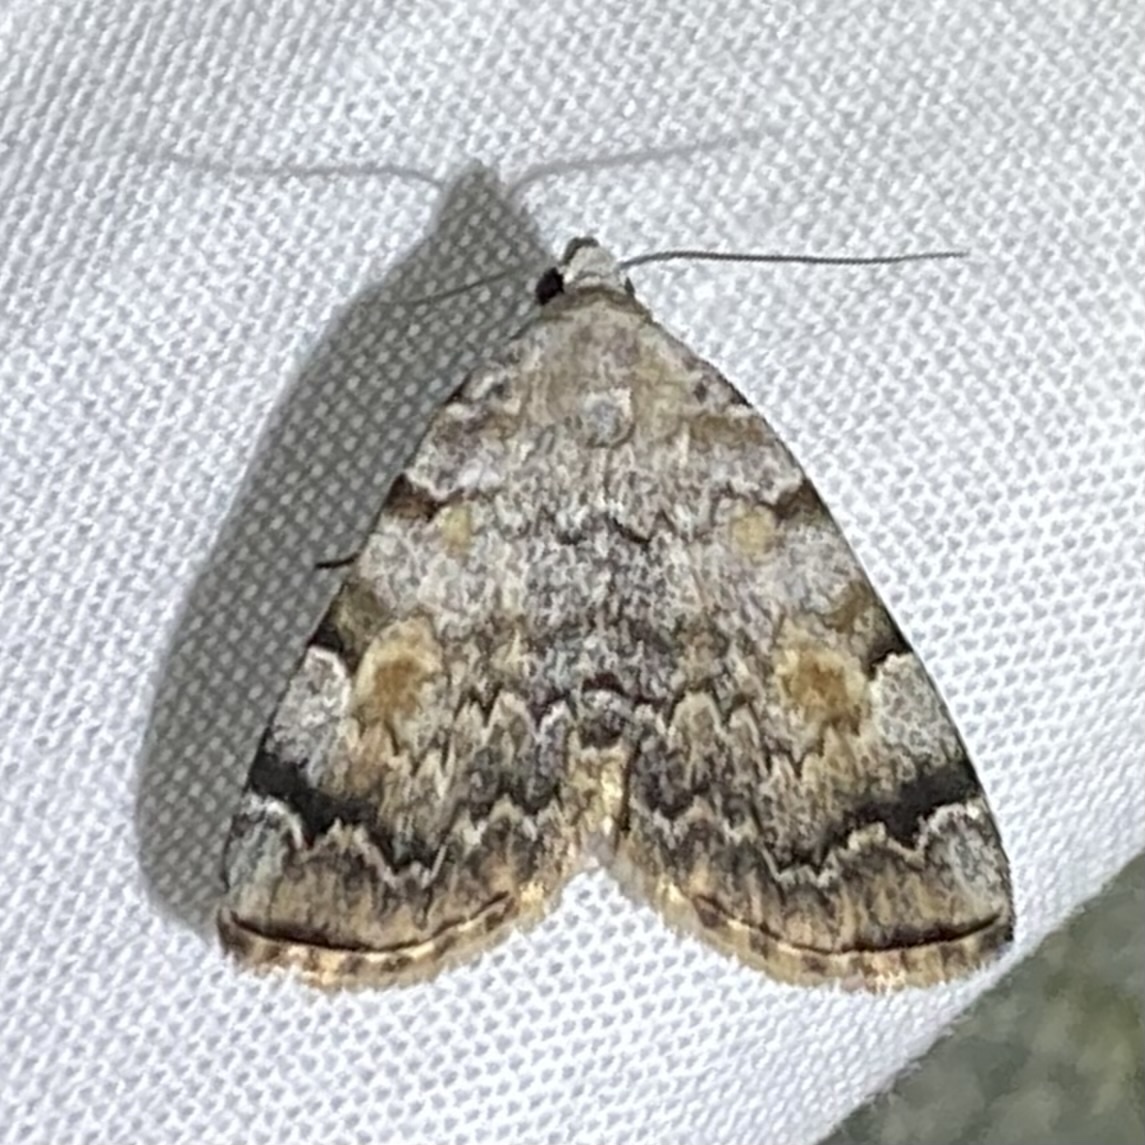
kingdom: Animalia
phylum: Arthropoda
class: Insecta
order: Lepidoptera
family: Erebidae
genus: Idia
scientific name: Idia americalis
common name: American idia moth
